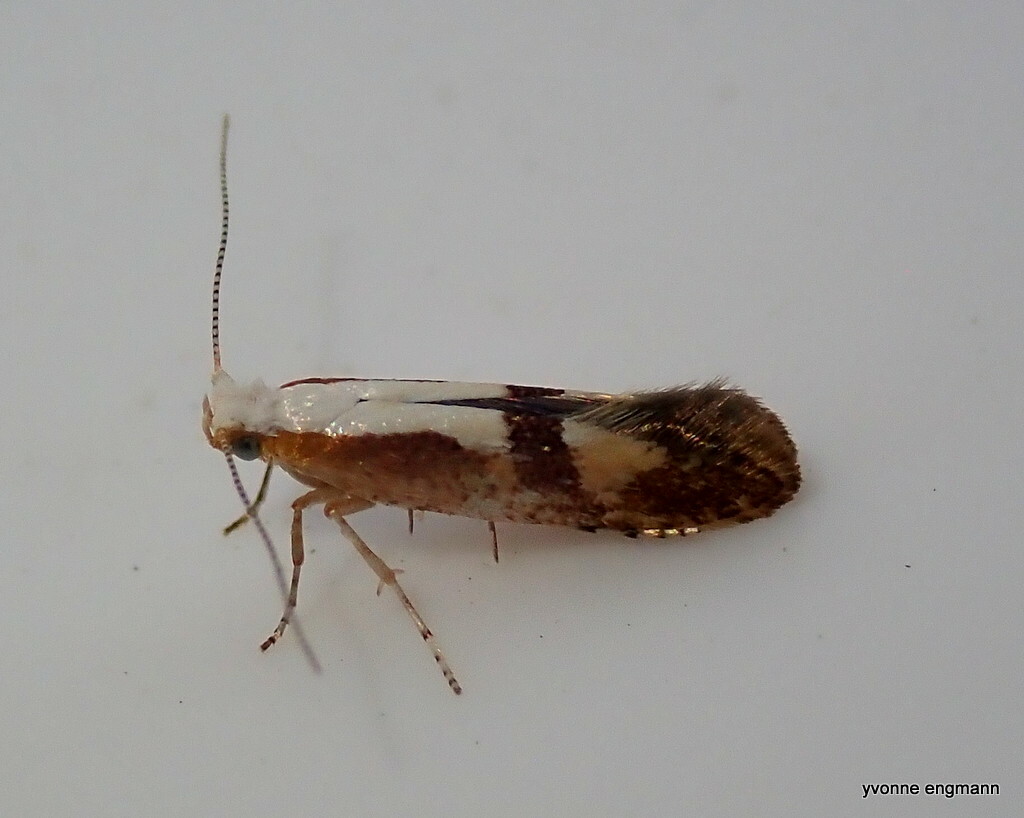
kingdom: Animalia
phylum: Arthropoda
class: Insecta
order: Lepidoptera
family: Argyresthiidae
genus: Argyresthia
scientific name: Argyresthia pruniella
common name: Cherry fruit moth
